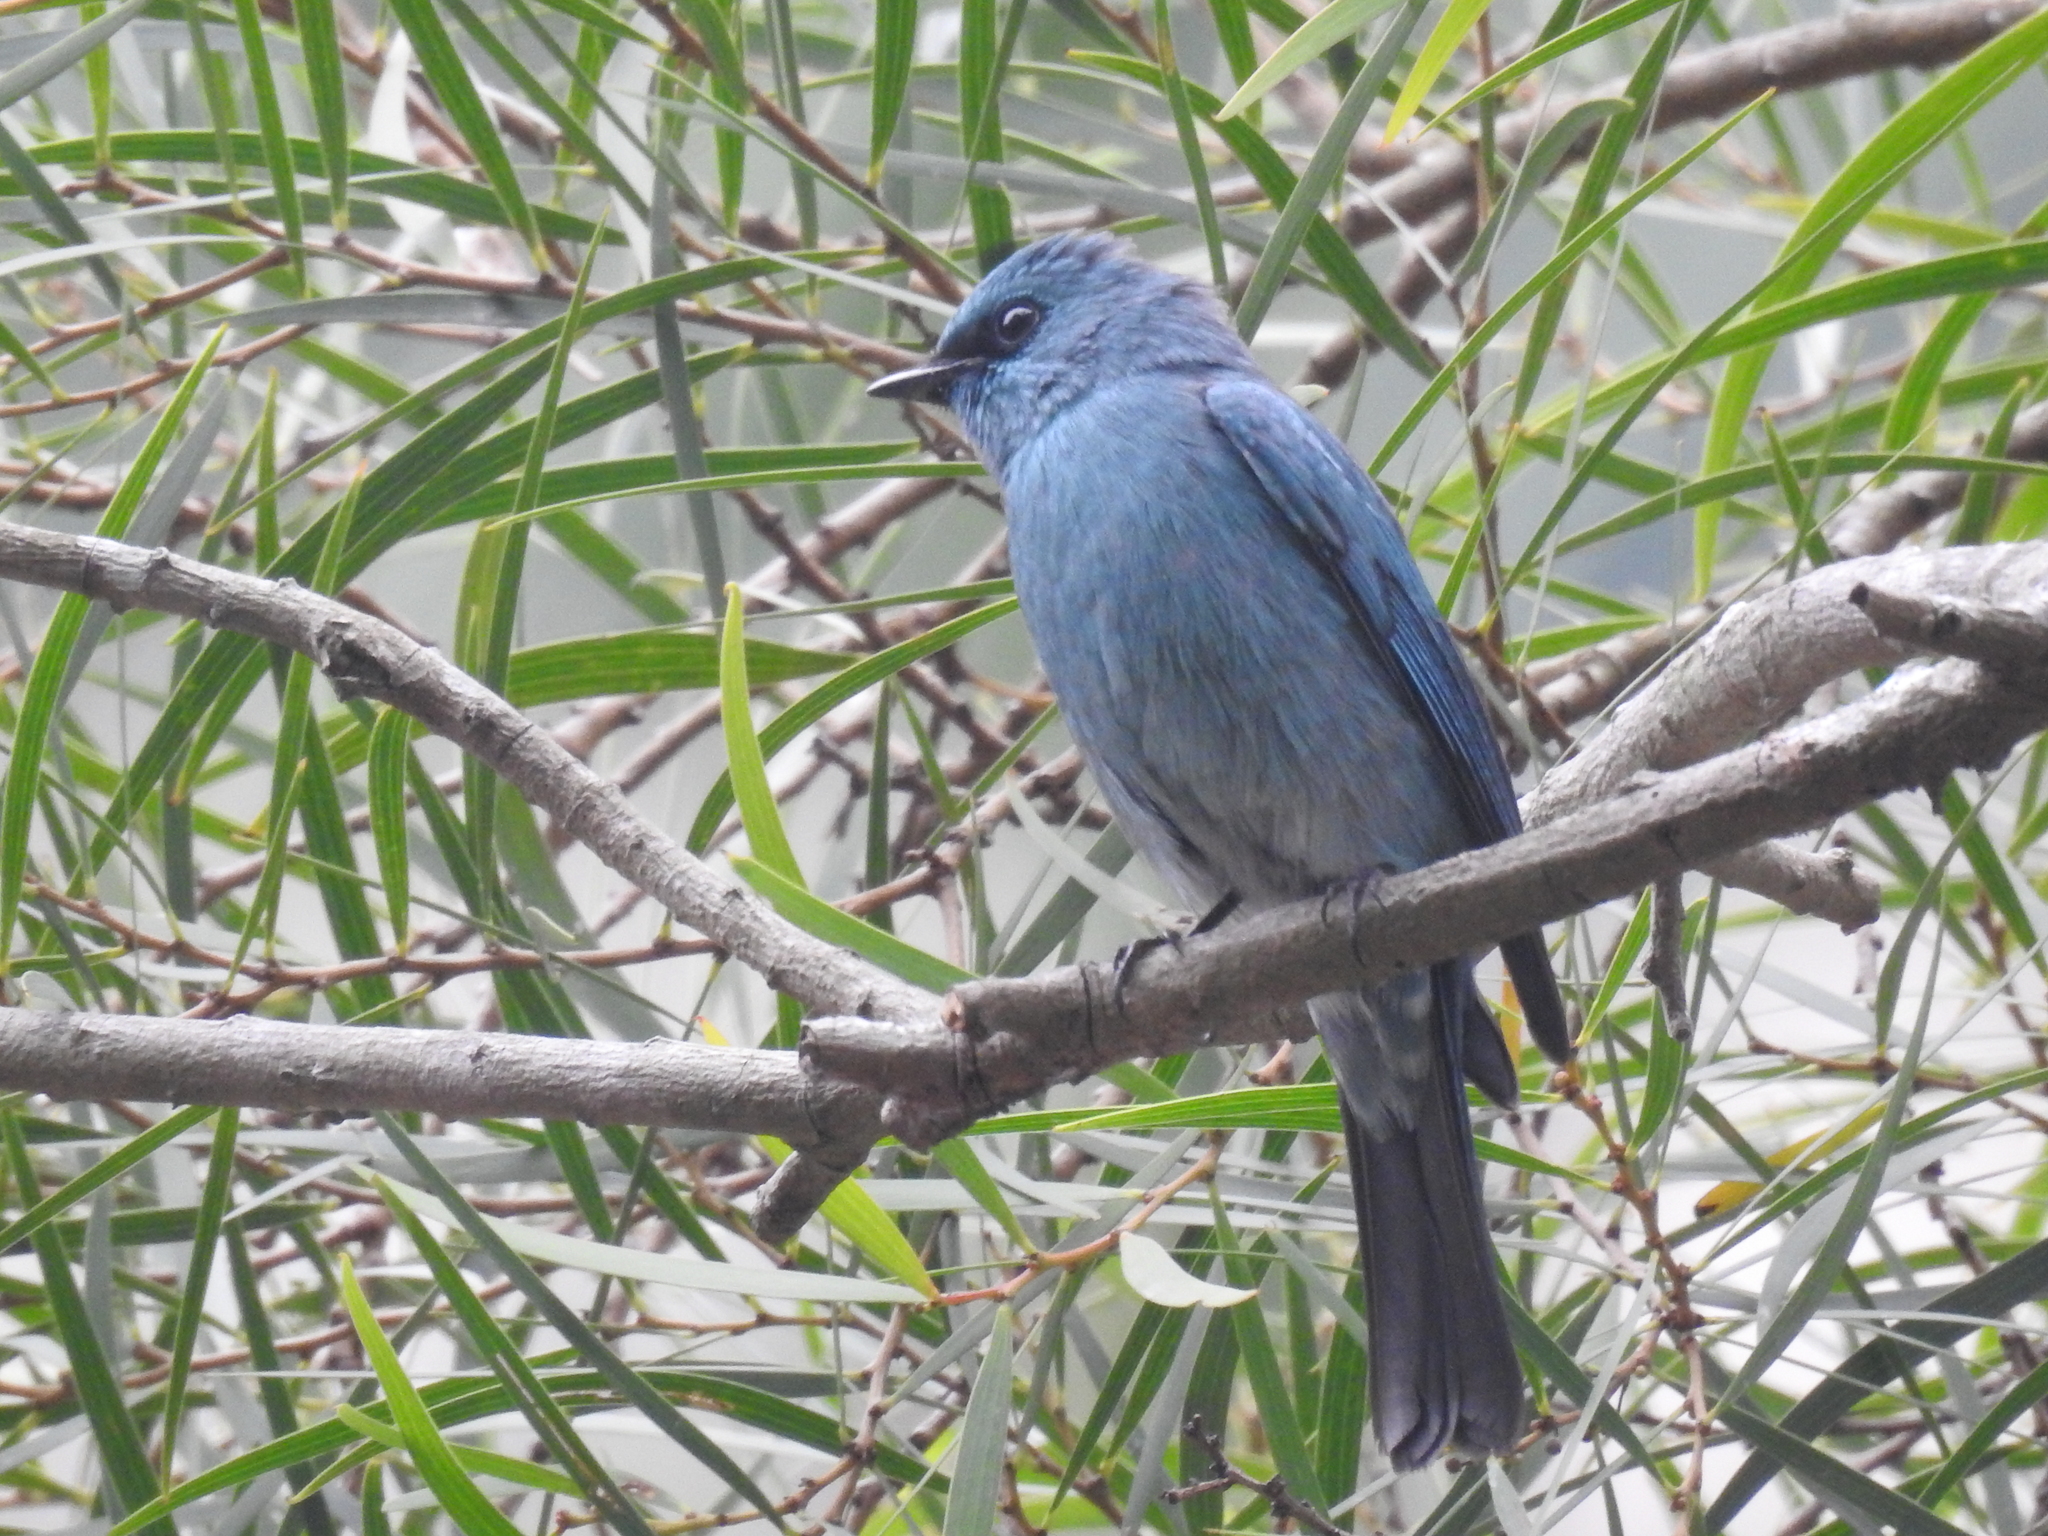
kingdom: Animalia
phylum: Chordata
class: Aves
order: Passeriformes
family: Muscicapidae
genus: Eumyias
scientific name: Eumyias thalassinus
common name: Verditer flycatcher
